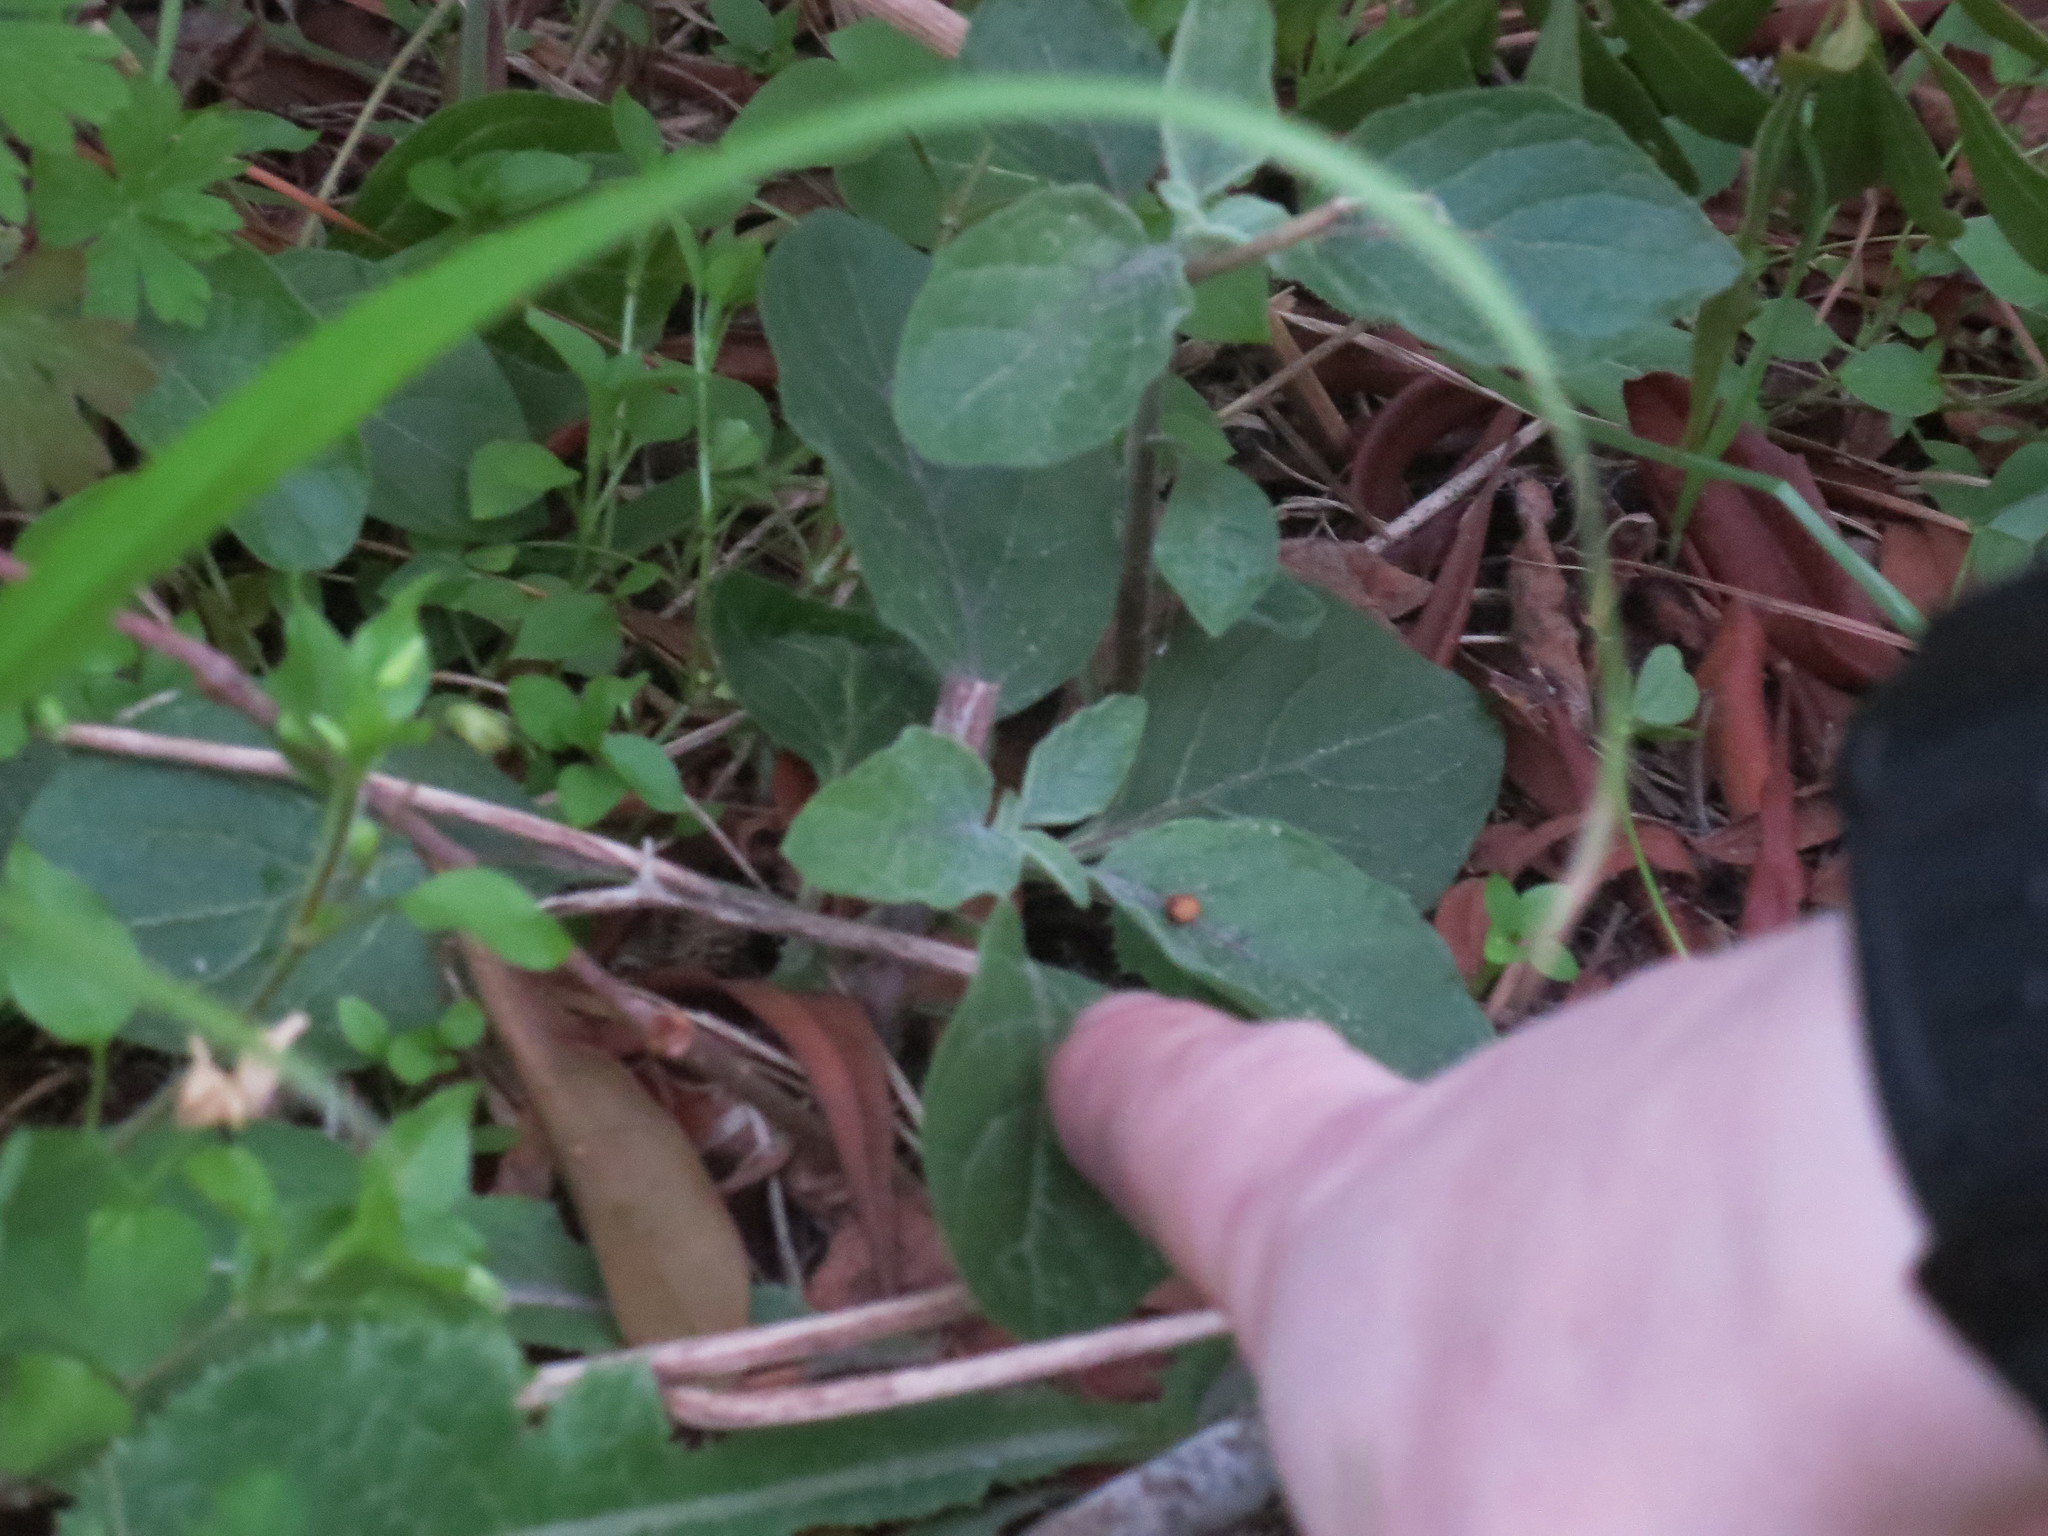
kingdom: Plantae
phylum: Tracheophyta
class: Magnoliopsida
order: Solanales
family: Solanaceae
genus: Physalis
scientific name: Physalis walteri
